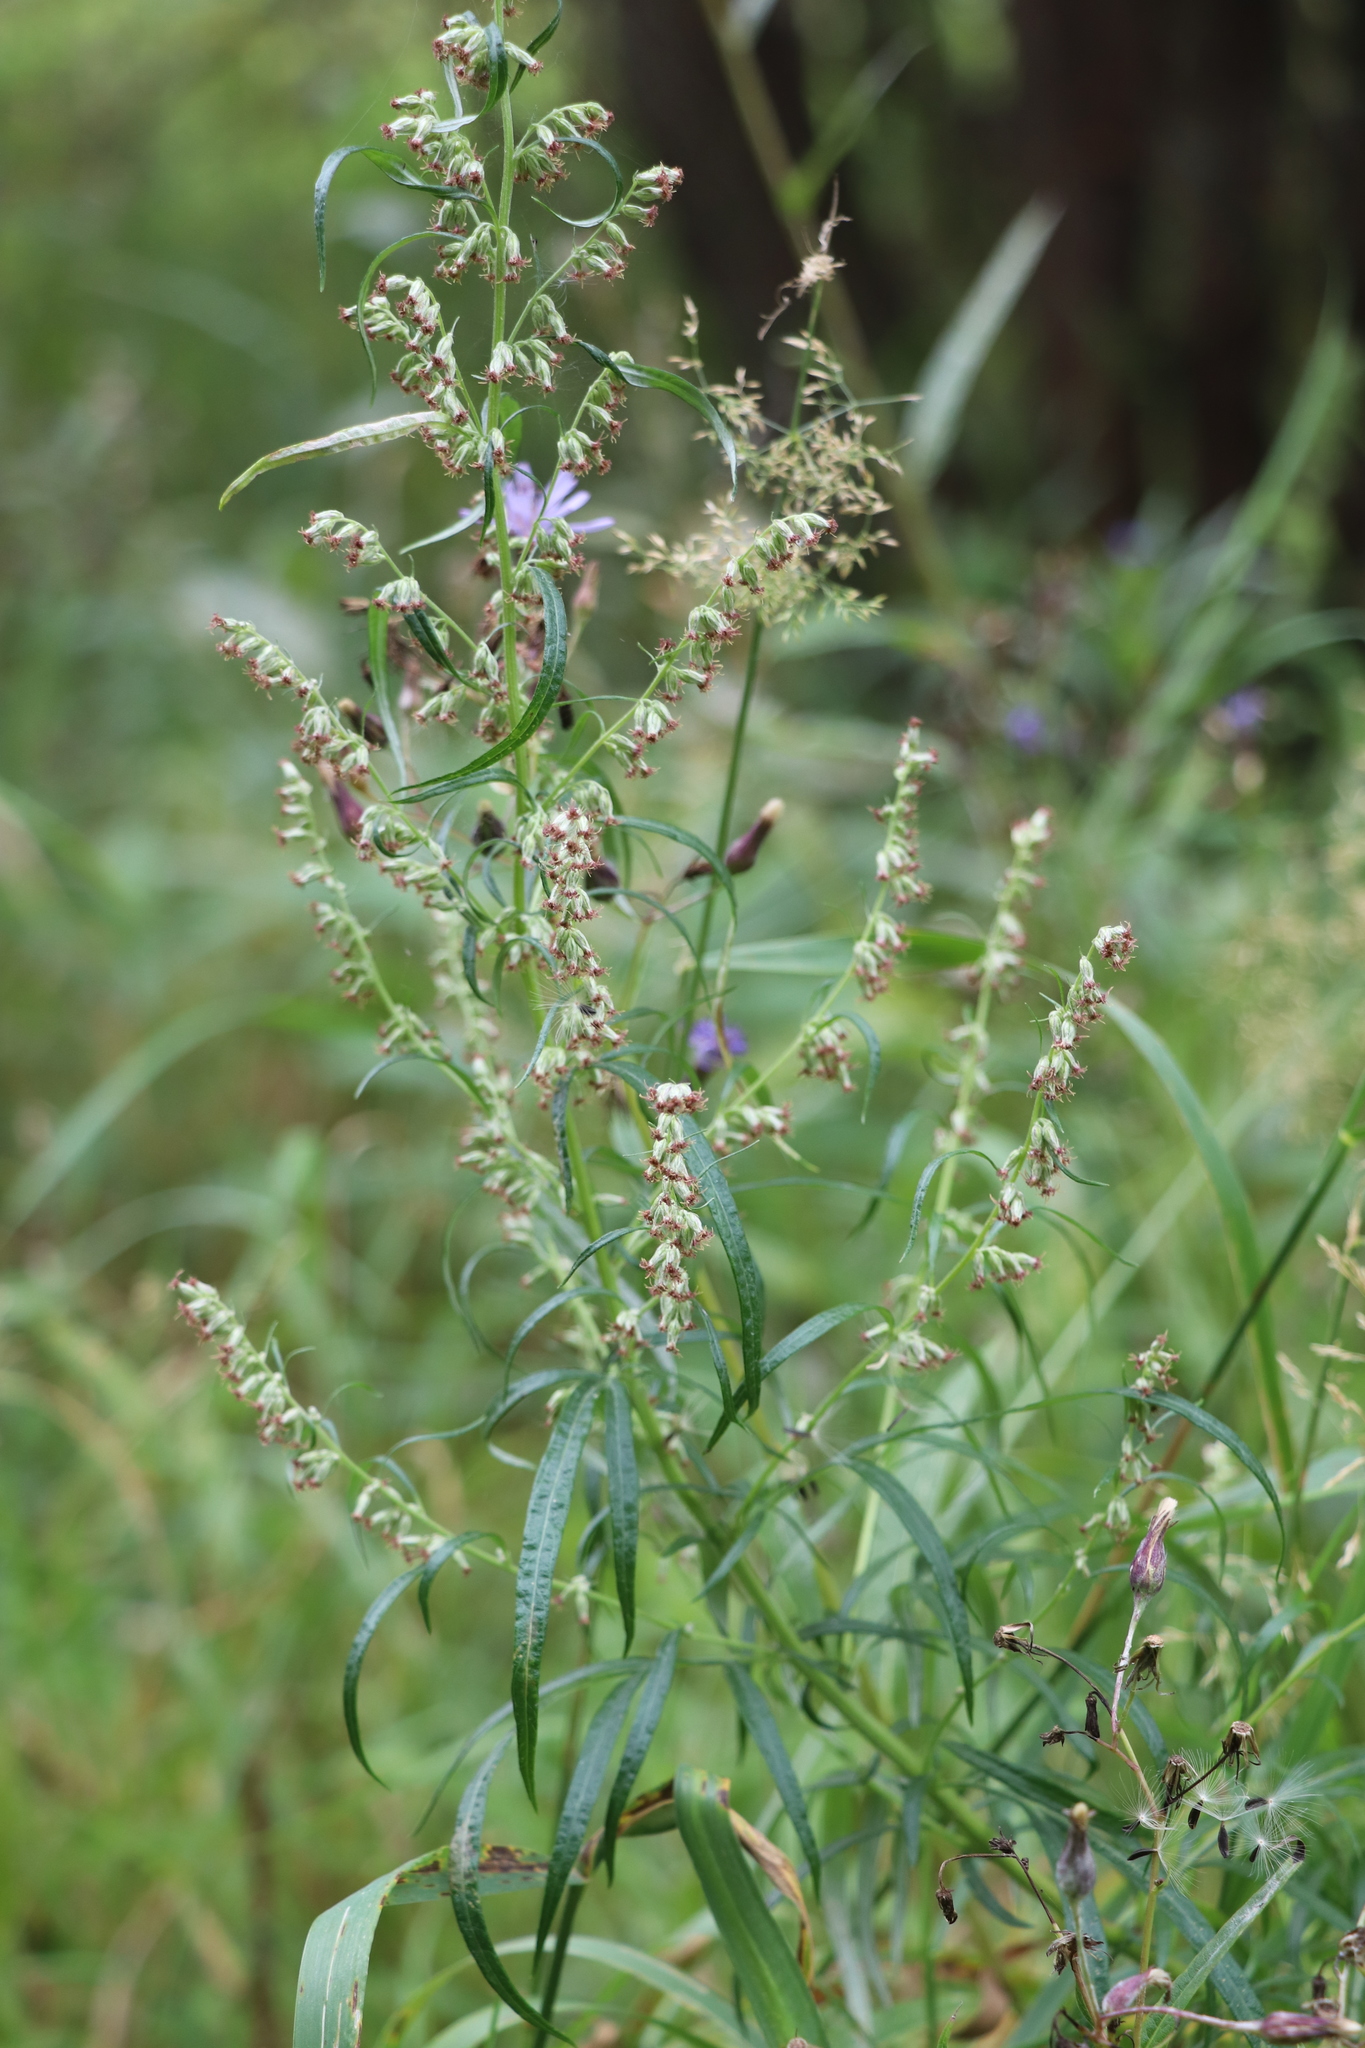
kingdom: Plantae
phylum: Tracheophyta
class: Magnoliopsida
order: Asterales
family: Asteraceae
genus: Artemisia
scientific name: Artemisia vulgaris
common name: Mugwort
